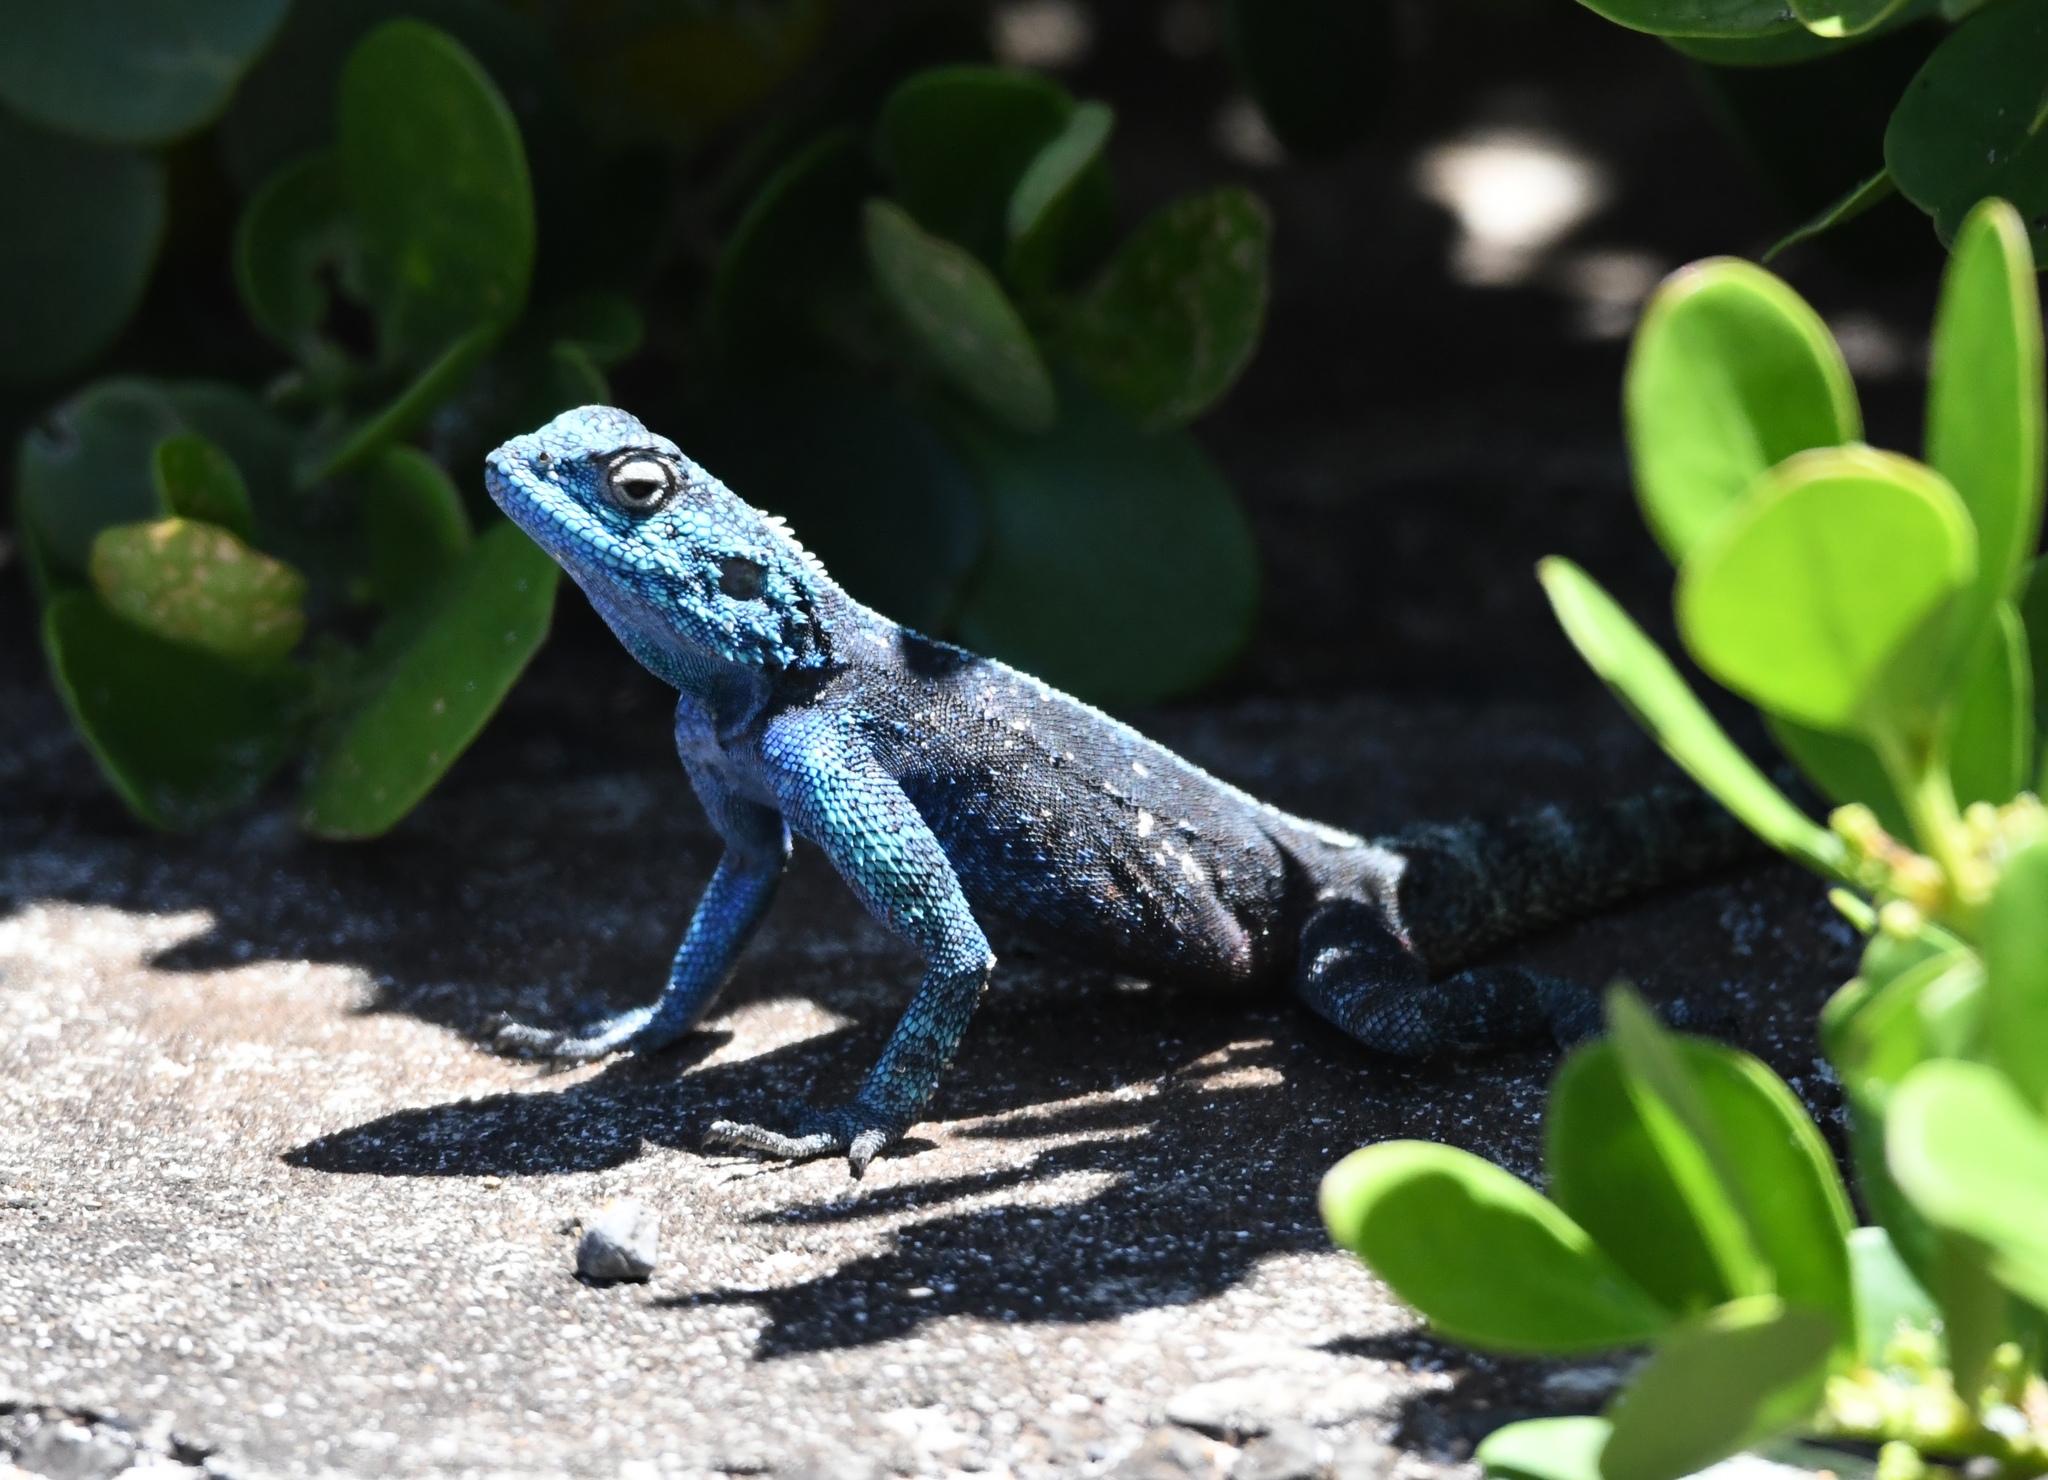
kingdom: Animalia
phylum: Chordata
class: Squamata
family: Agamidae
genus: Agama
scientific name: Agama atra
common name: Southern african rock agama
